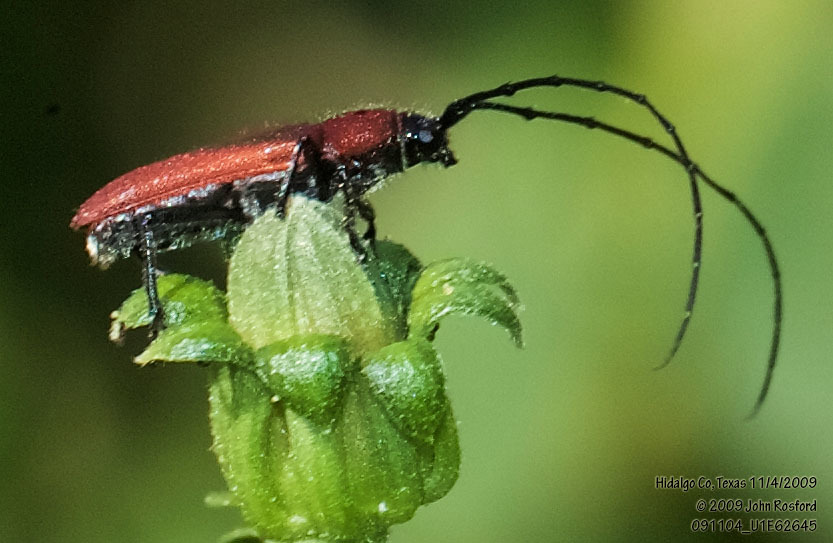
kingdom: Animalia
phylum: Arthropoda
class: Insecta
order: Coleoptera
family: Cerambycidae
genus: Tylosis
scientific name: Tylosis oculatus
